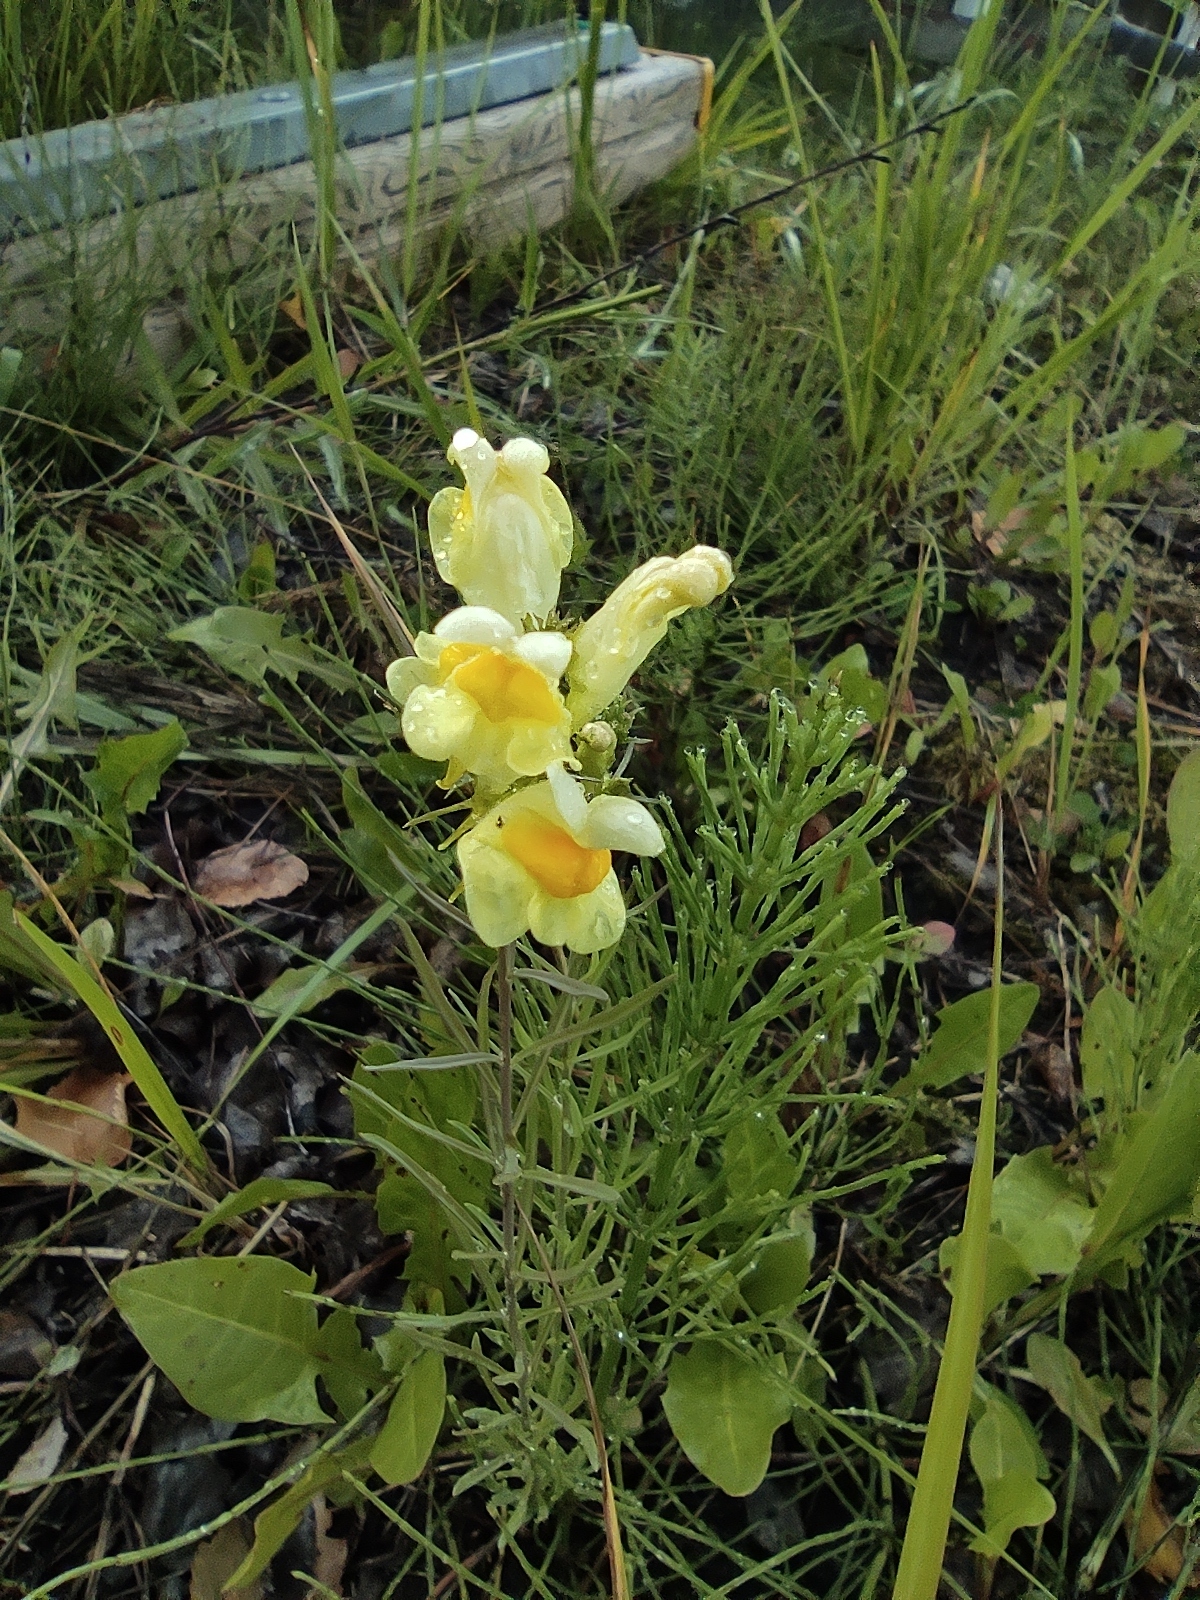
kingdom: Plantae
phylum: Tracheophyta
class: Magnoliopsida
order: Lamiales
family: Plantaginaceae
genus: Linaria
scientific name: Linaria vulgaris
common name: Butter and eggs
